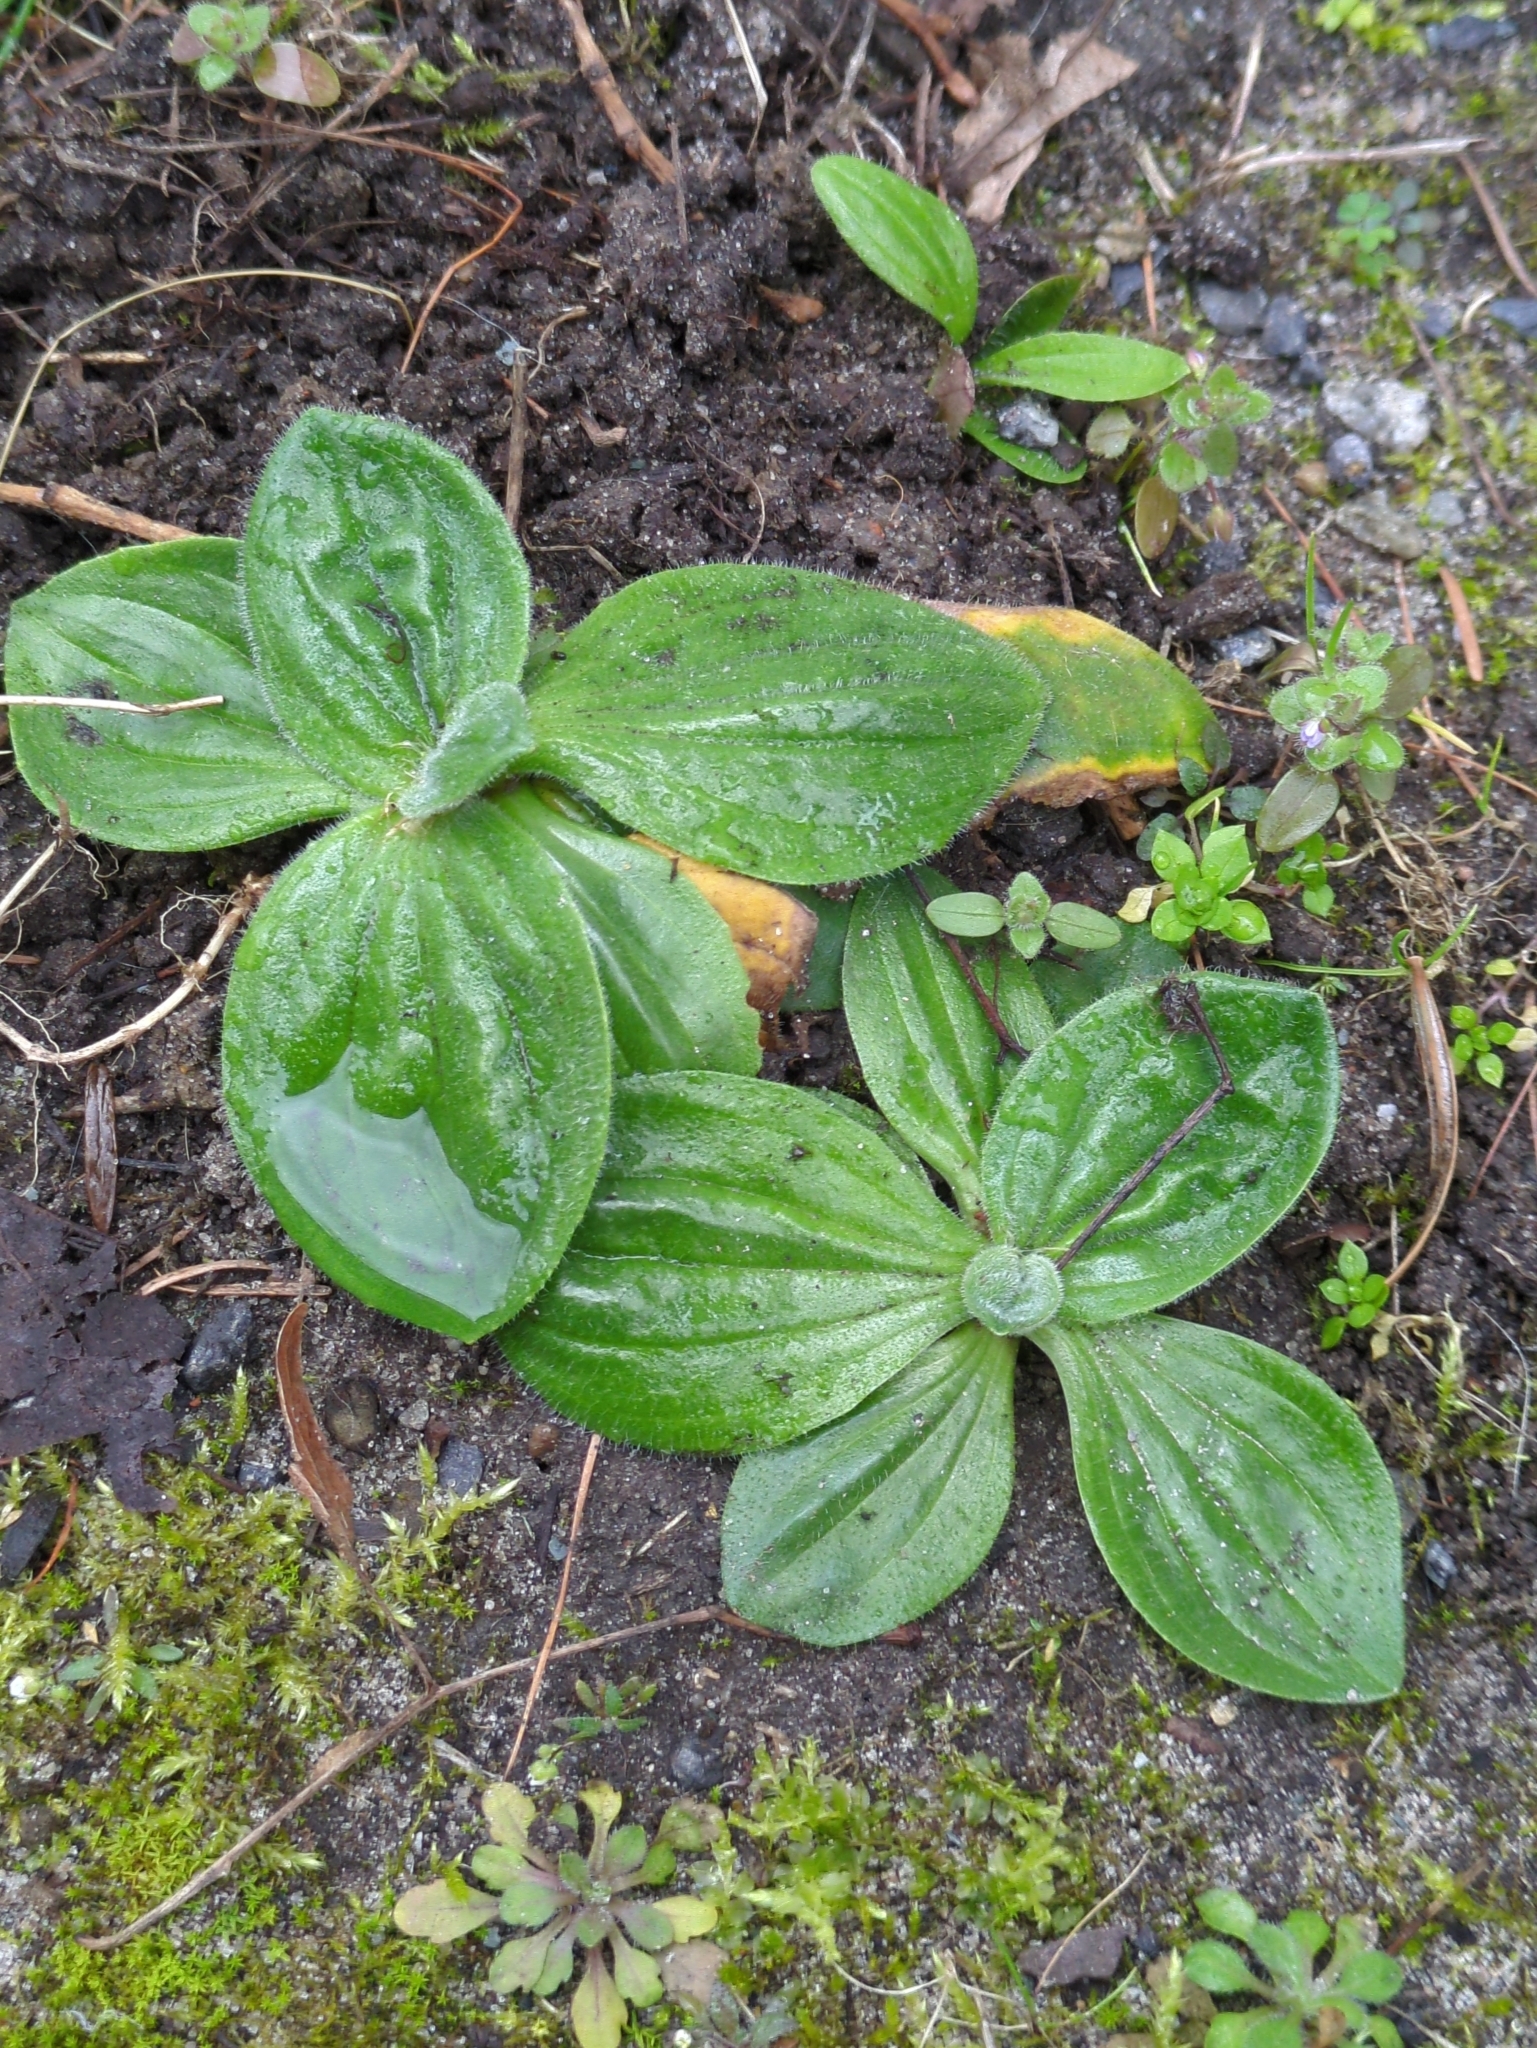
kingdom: Plantae
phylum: Tracheophyta
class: Magnoliopsida
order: Lamiales
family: Plantaginaceae
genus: Plantago
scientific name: Plantago media
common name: Hoary plantain
